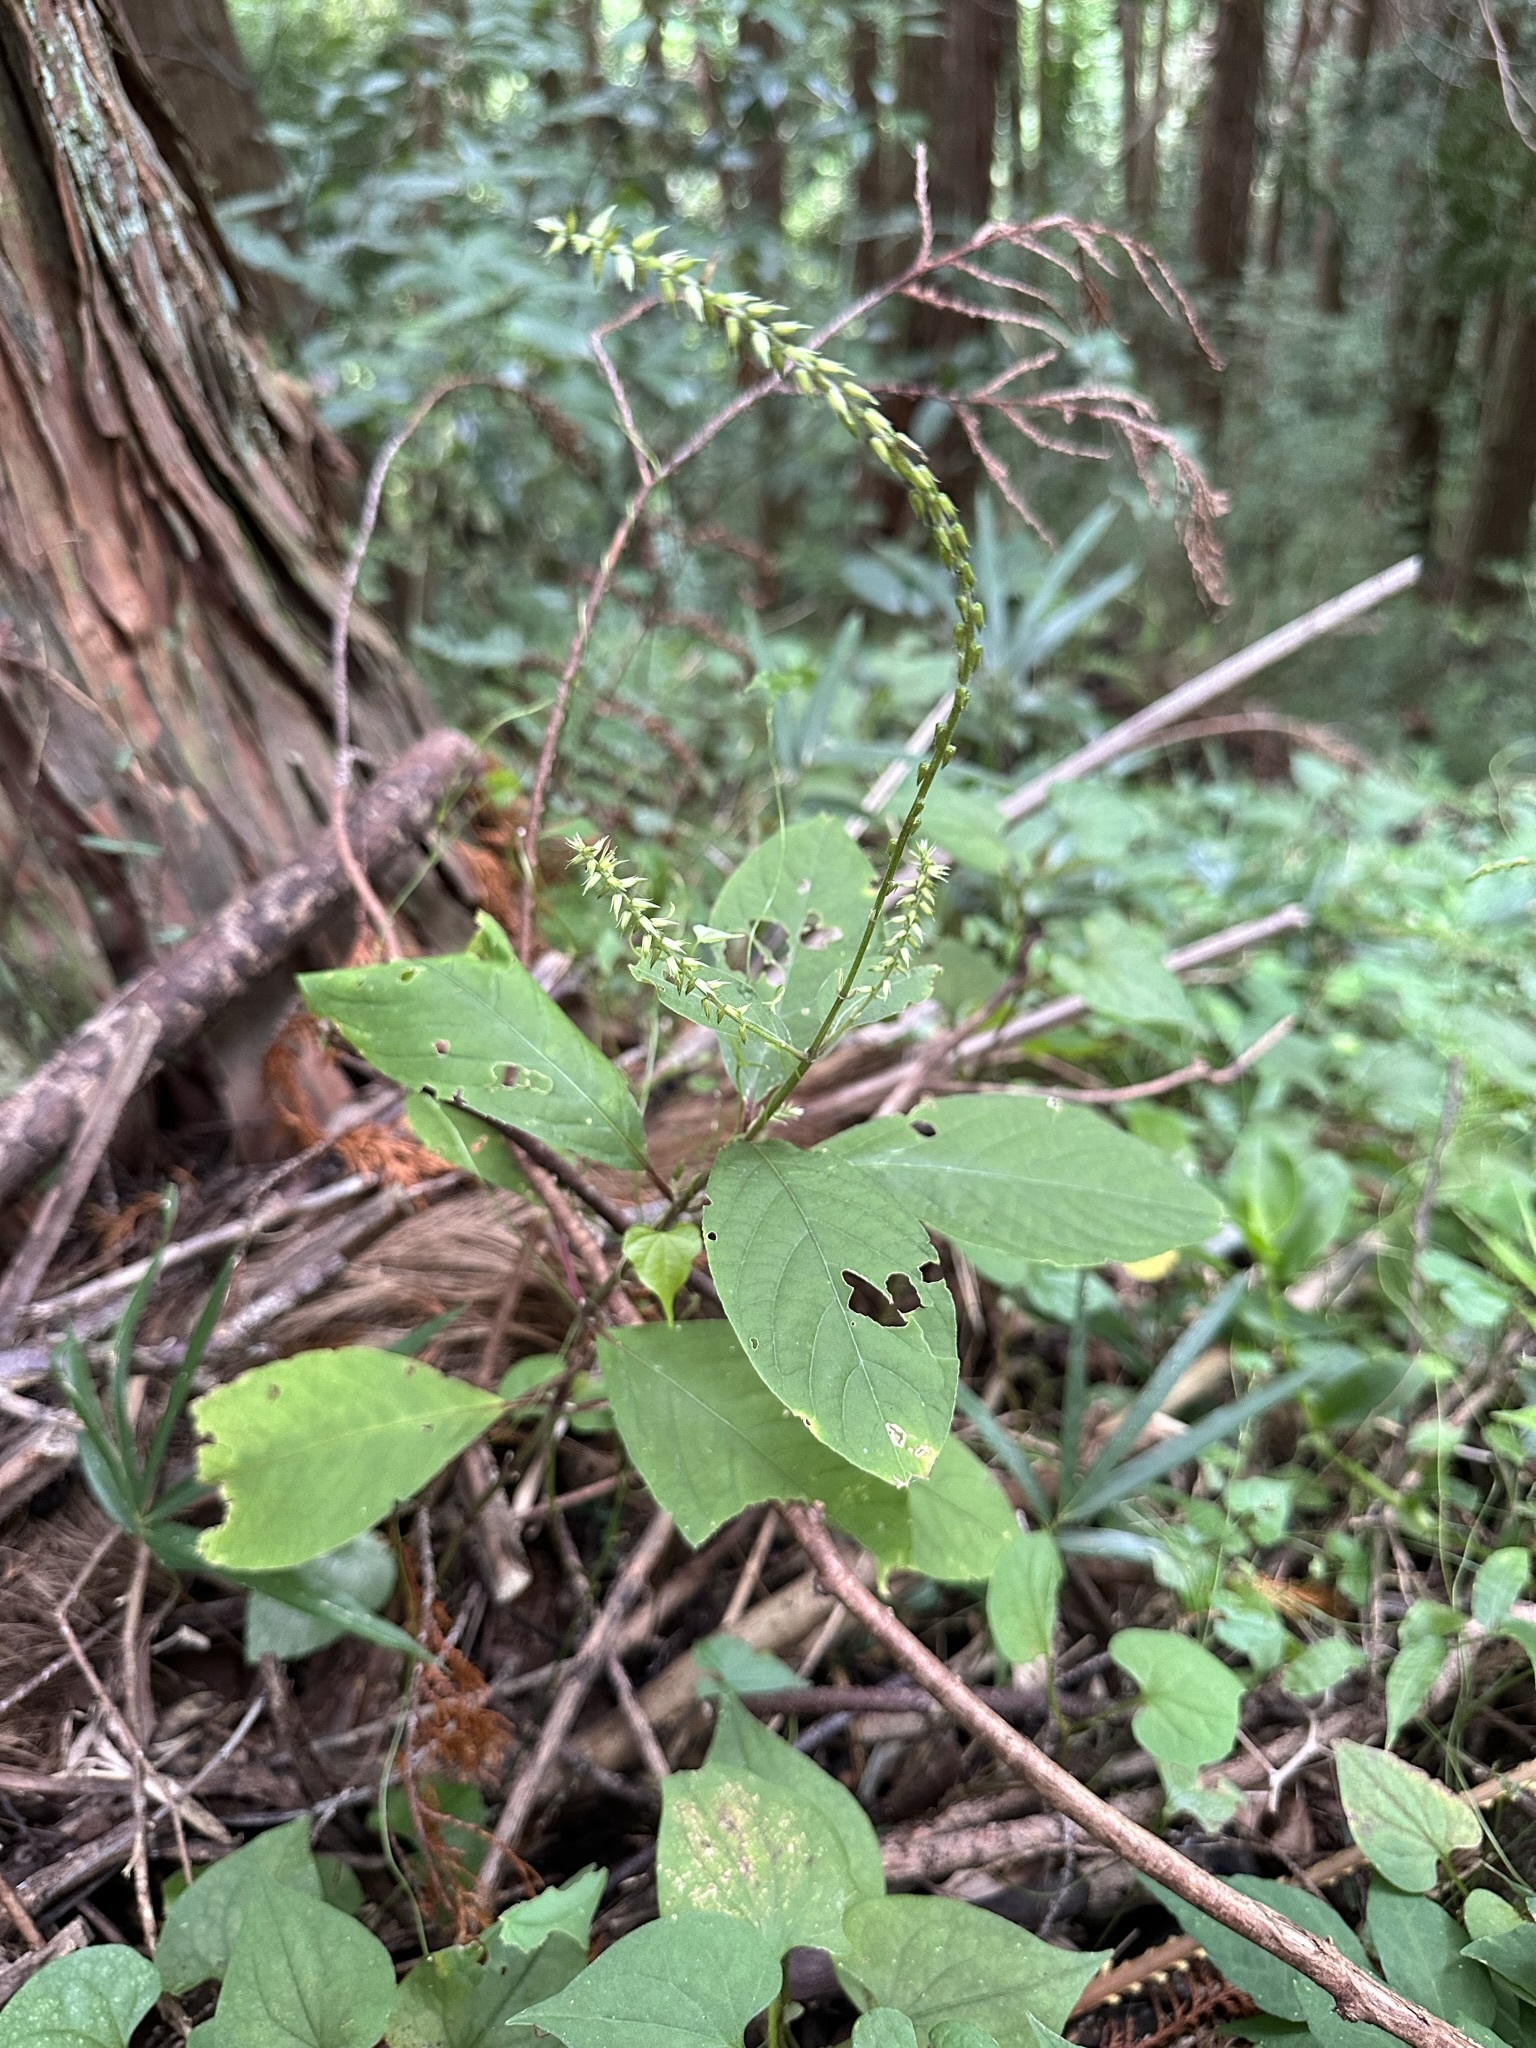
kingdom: Plantae
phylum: Tracheophyta
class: Magnoliopsida
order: Caryophyllales
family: Amaranthaceae
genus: Achyranthes
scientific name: Achyranthes bidentata
